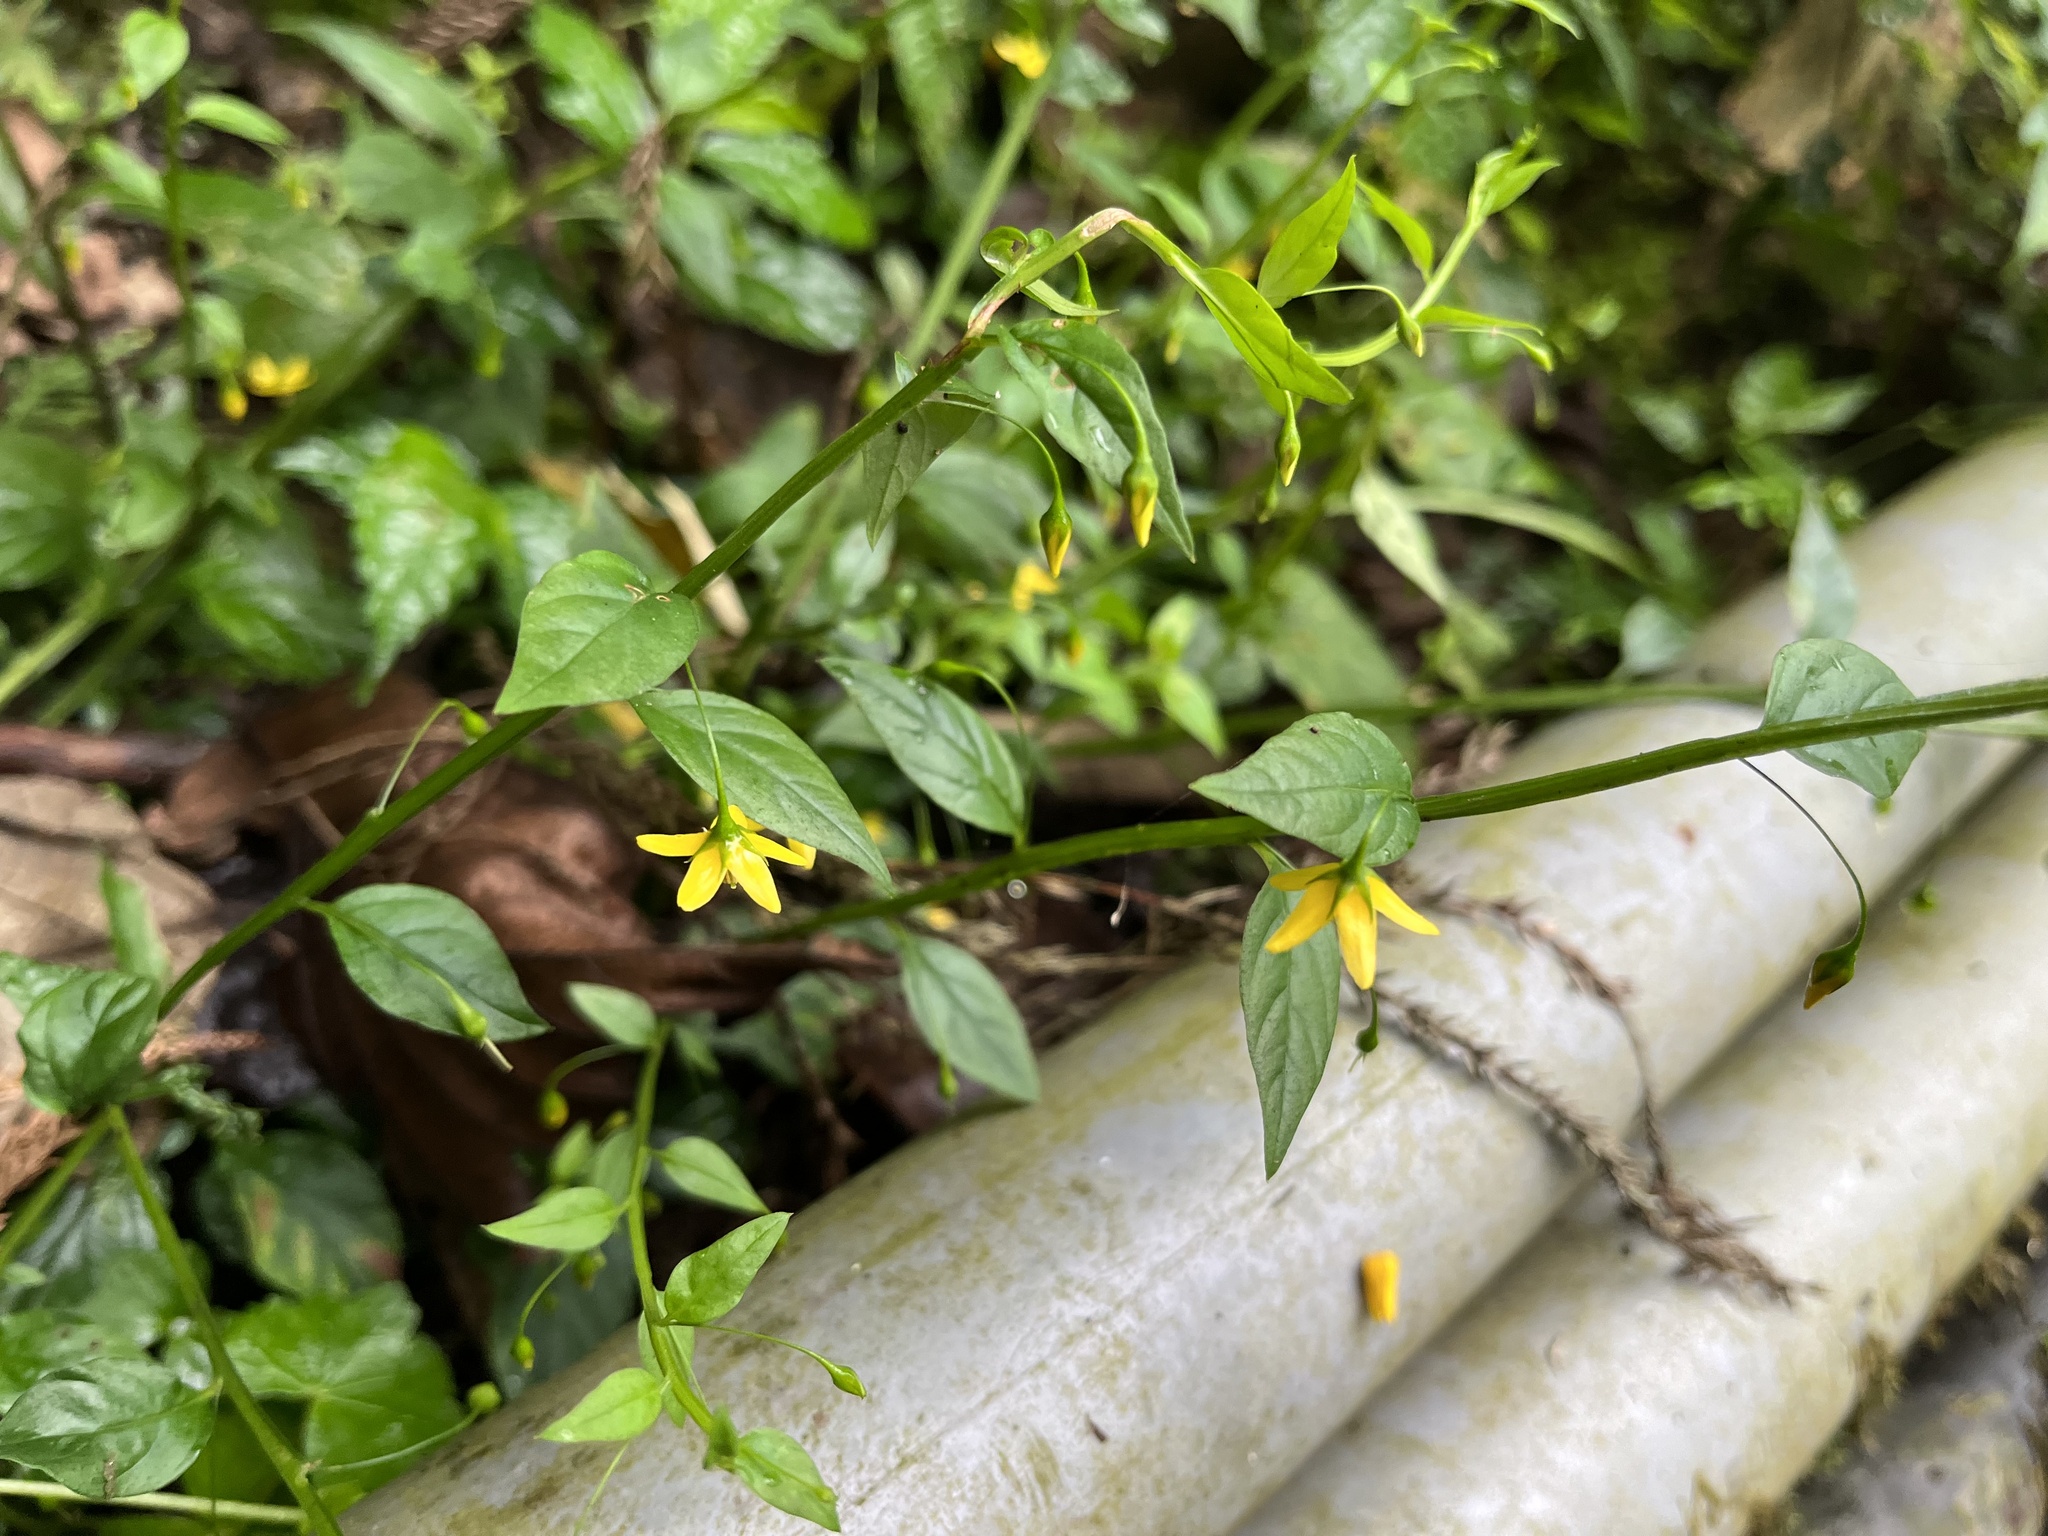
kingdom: Plantae
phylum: Tracheophyta
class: Magnoliopsida
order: Ericales
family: Primulaceae
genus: Lysimachia
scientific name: Lysimachia ardisioides
